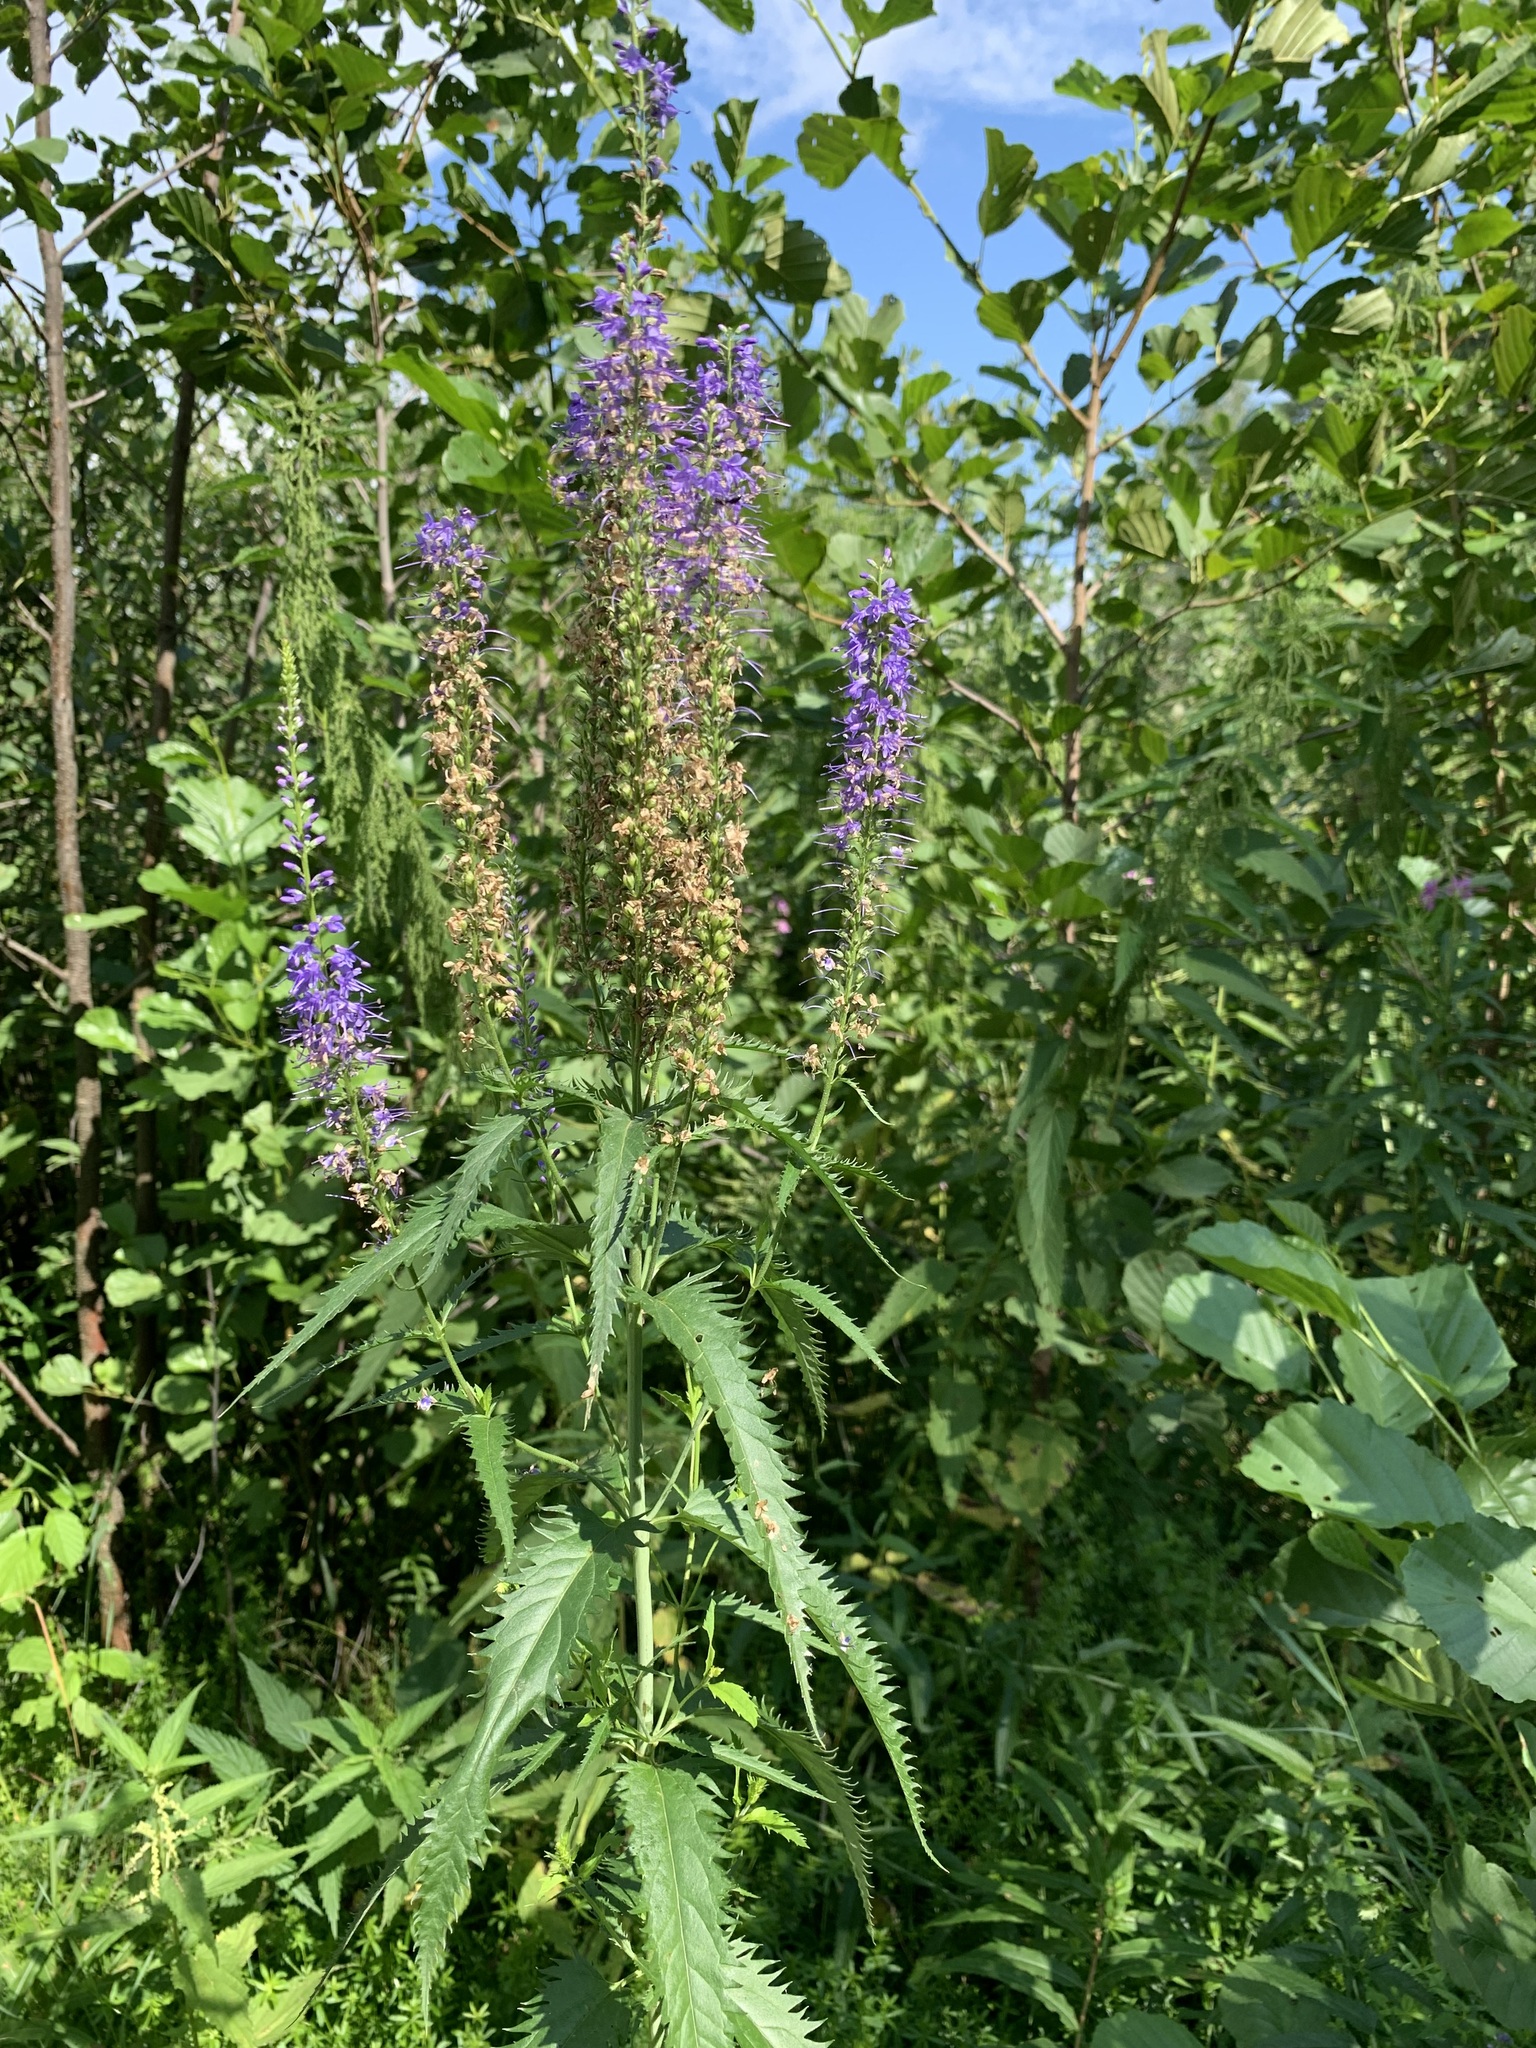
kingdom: Plantae
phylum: Tracheophyta
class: Magnoliopsida
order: Lamiales
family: Plantaginaceae
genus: Veronica
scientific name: Veronica longifolia
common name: Garden speedwell
